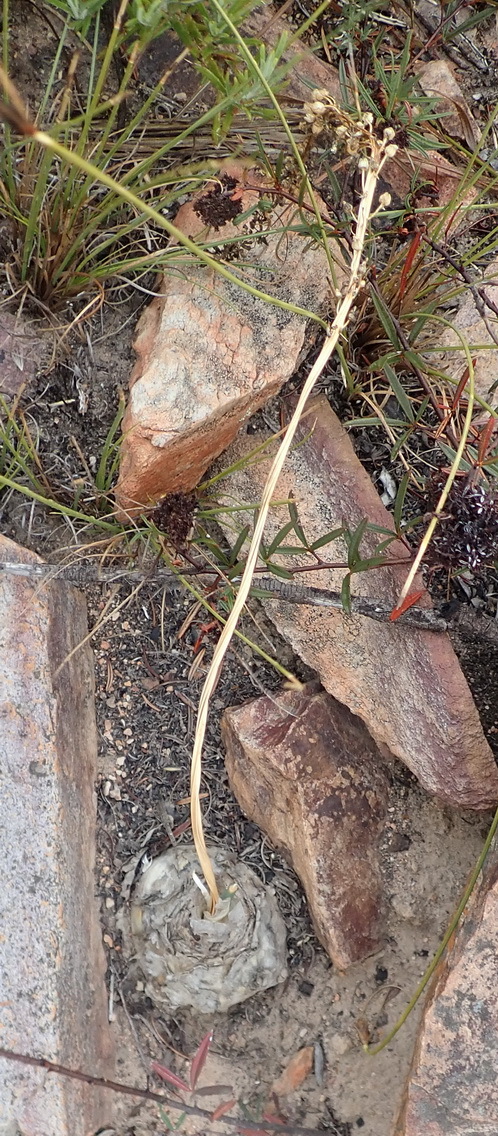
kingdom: Plantae
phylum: Tracheophyta
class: Liliopsida
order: Asparagales
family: Asparagaceae
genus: Drimia
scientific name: Drimia anomala
